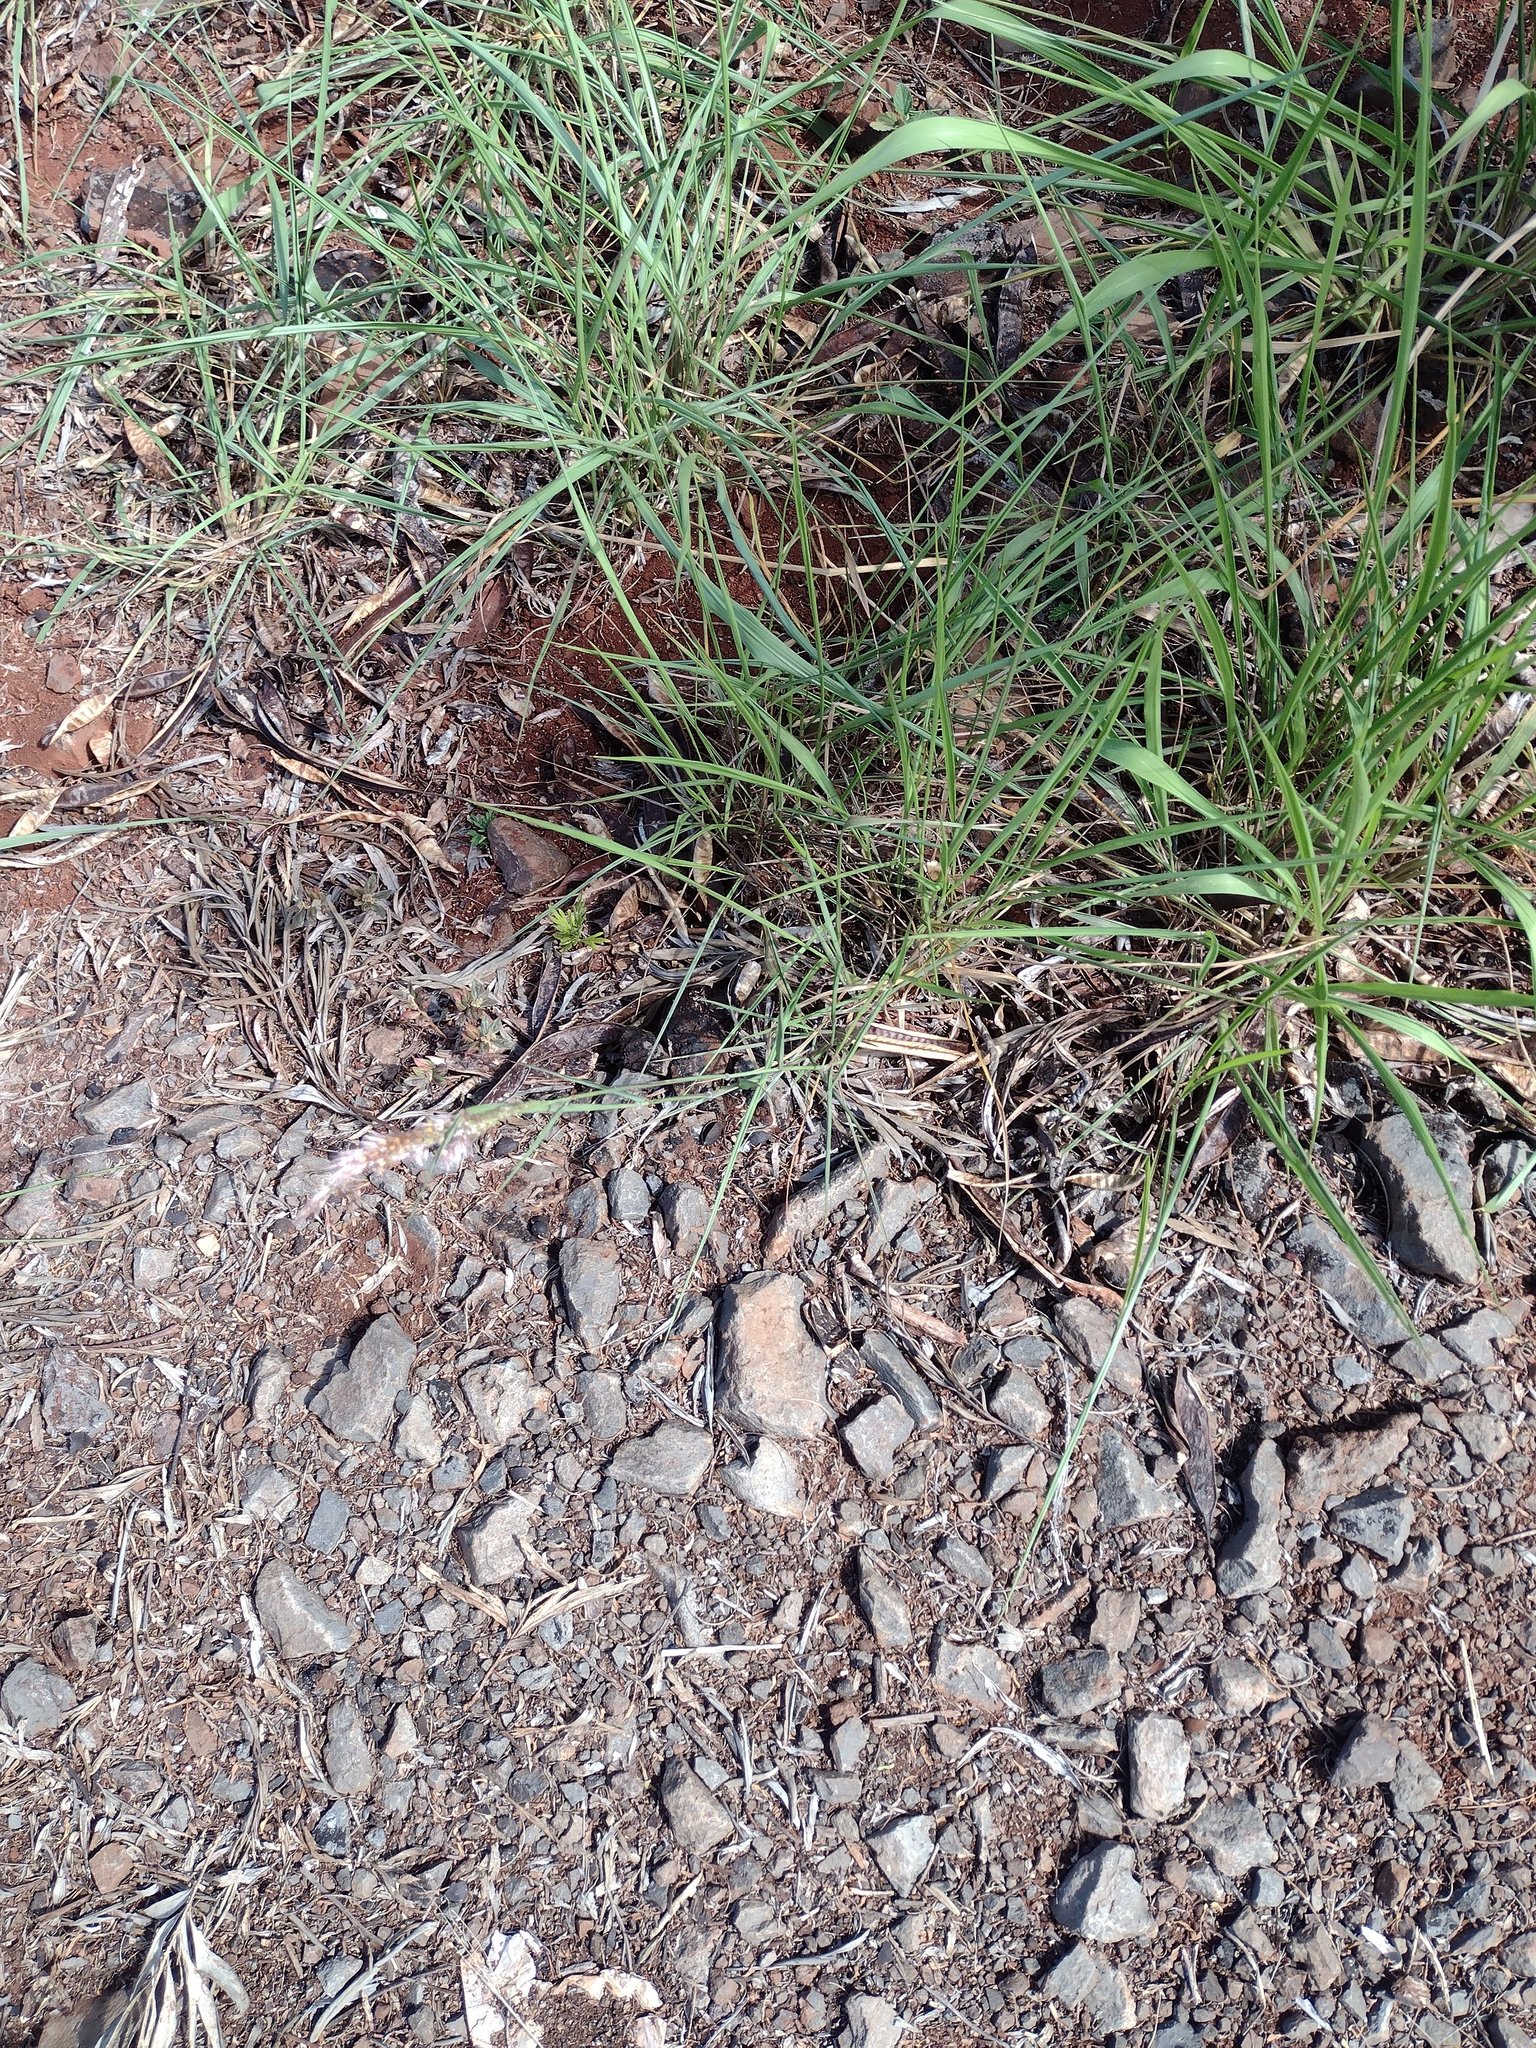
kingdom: Plantae
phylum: Tracheophyta
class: Liliopsida
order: Poales
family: Poaceae
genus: Melinis
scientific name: Melinis repens
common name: Rose natal grass
